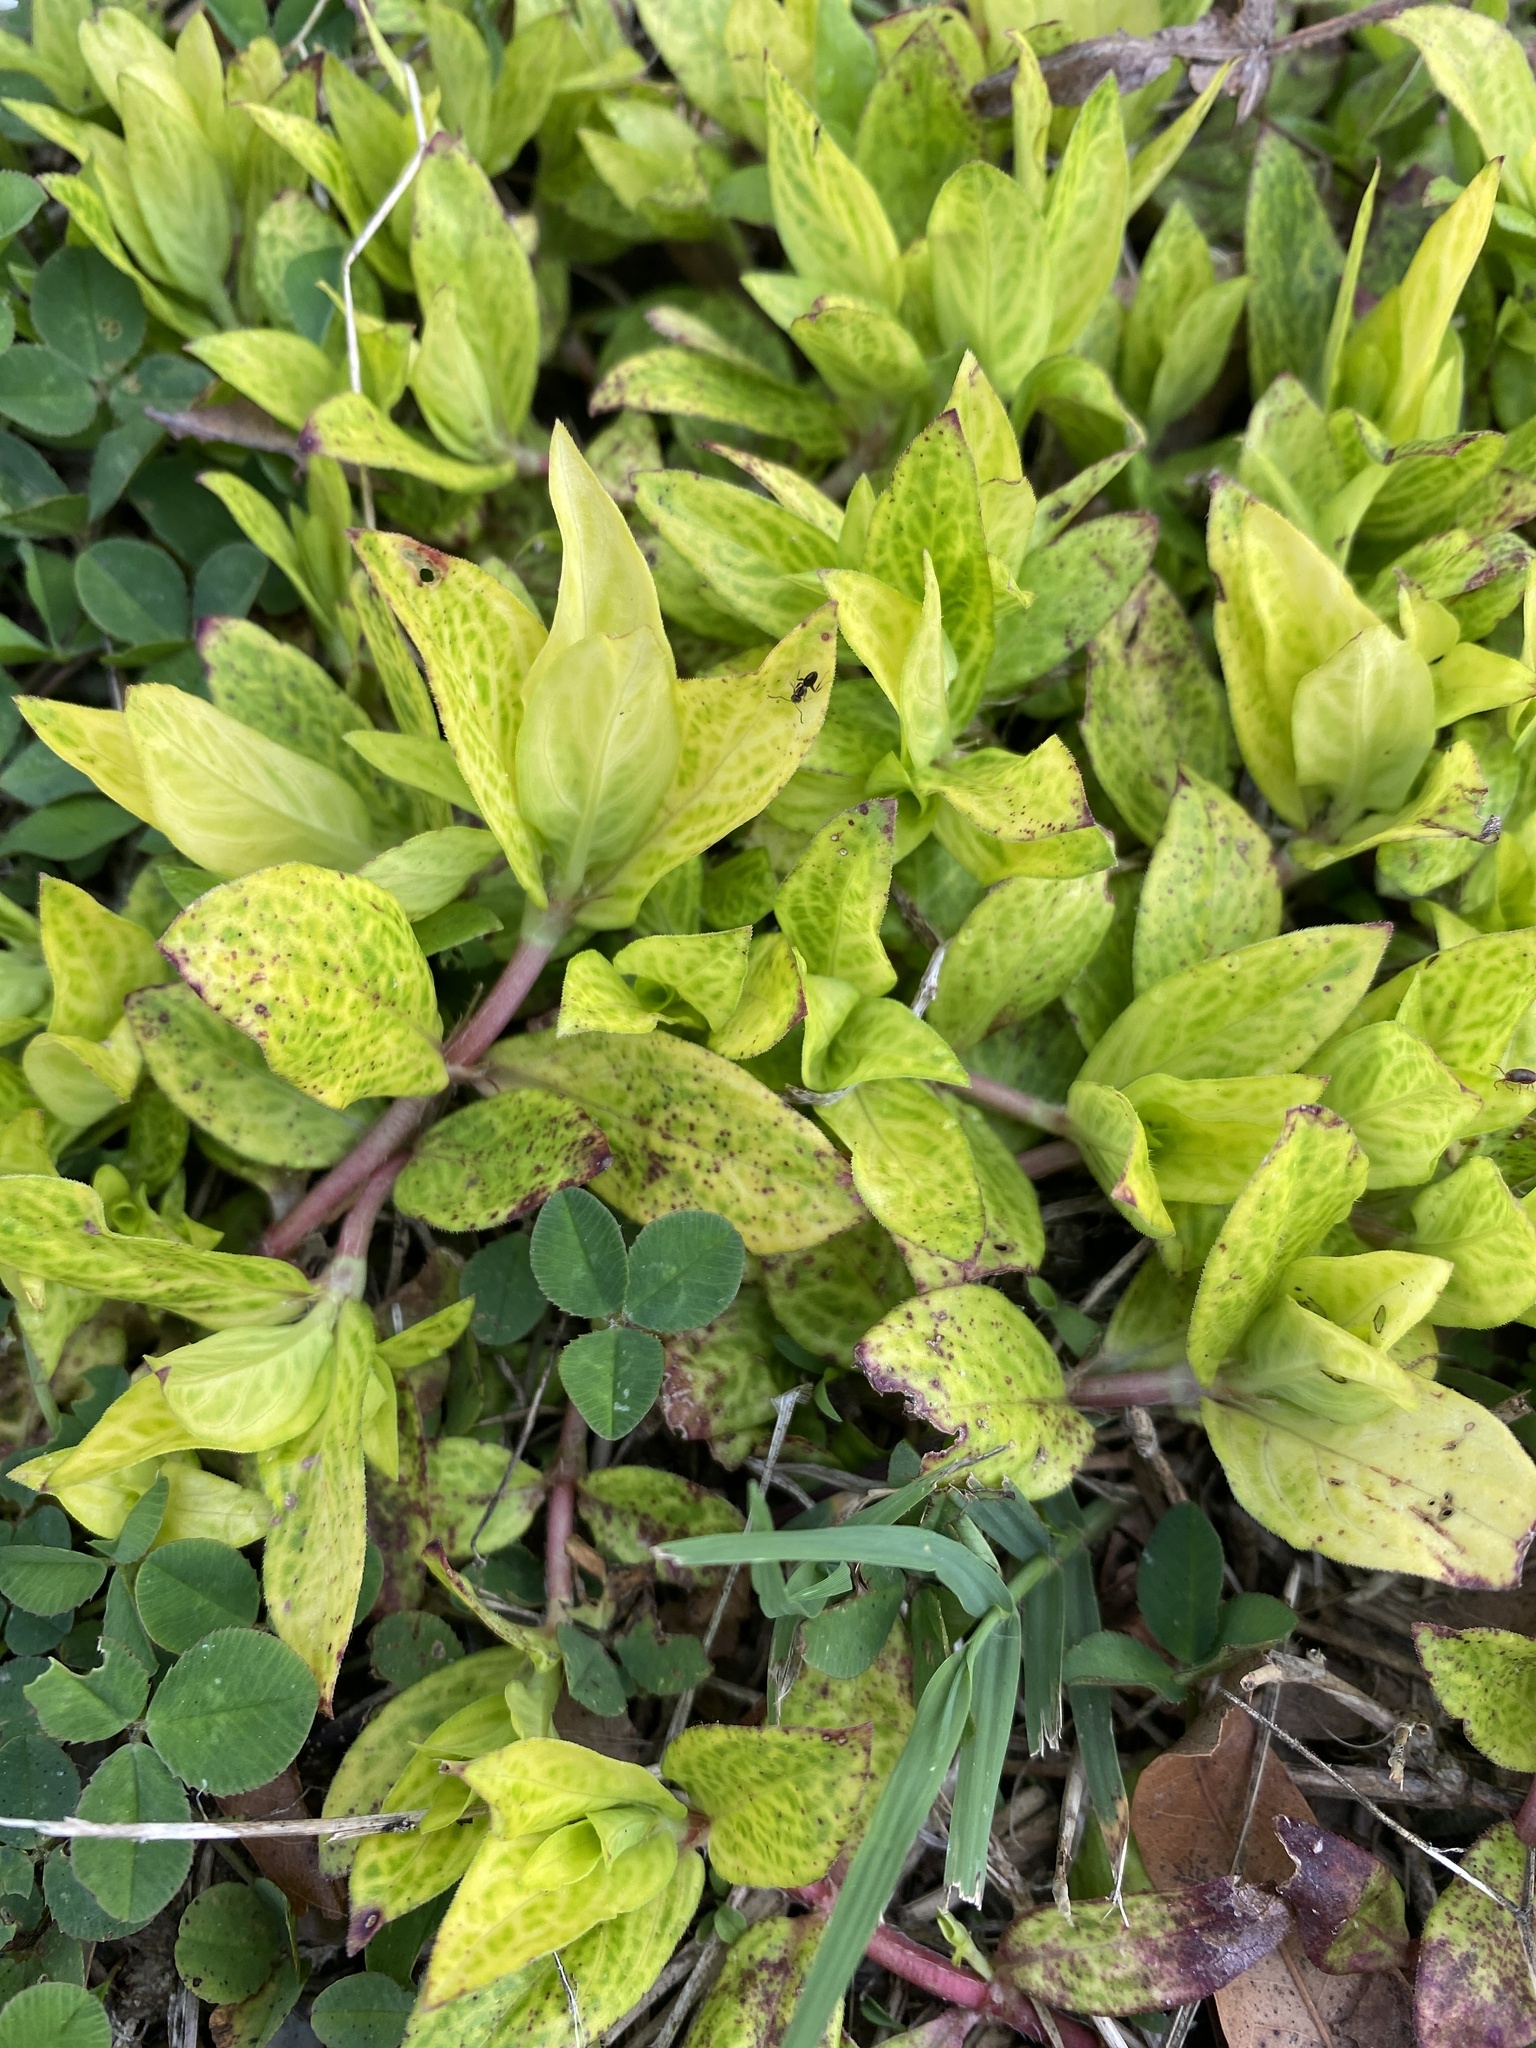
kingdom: Viruses
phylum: Kitrinoviricota
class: Alsuviricetes
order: Martellivirales
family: Closteroviridae
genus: Crinivirus
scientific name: Crinivirus Diodia vein chlorosis virus
